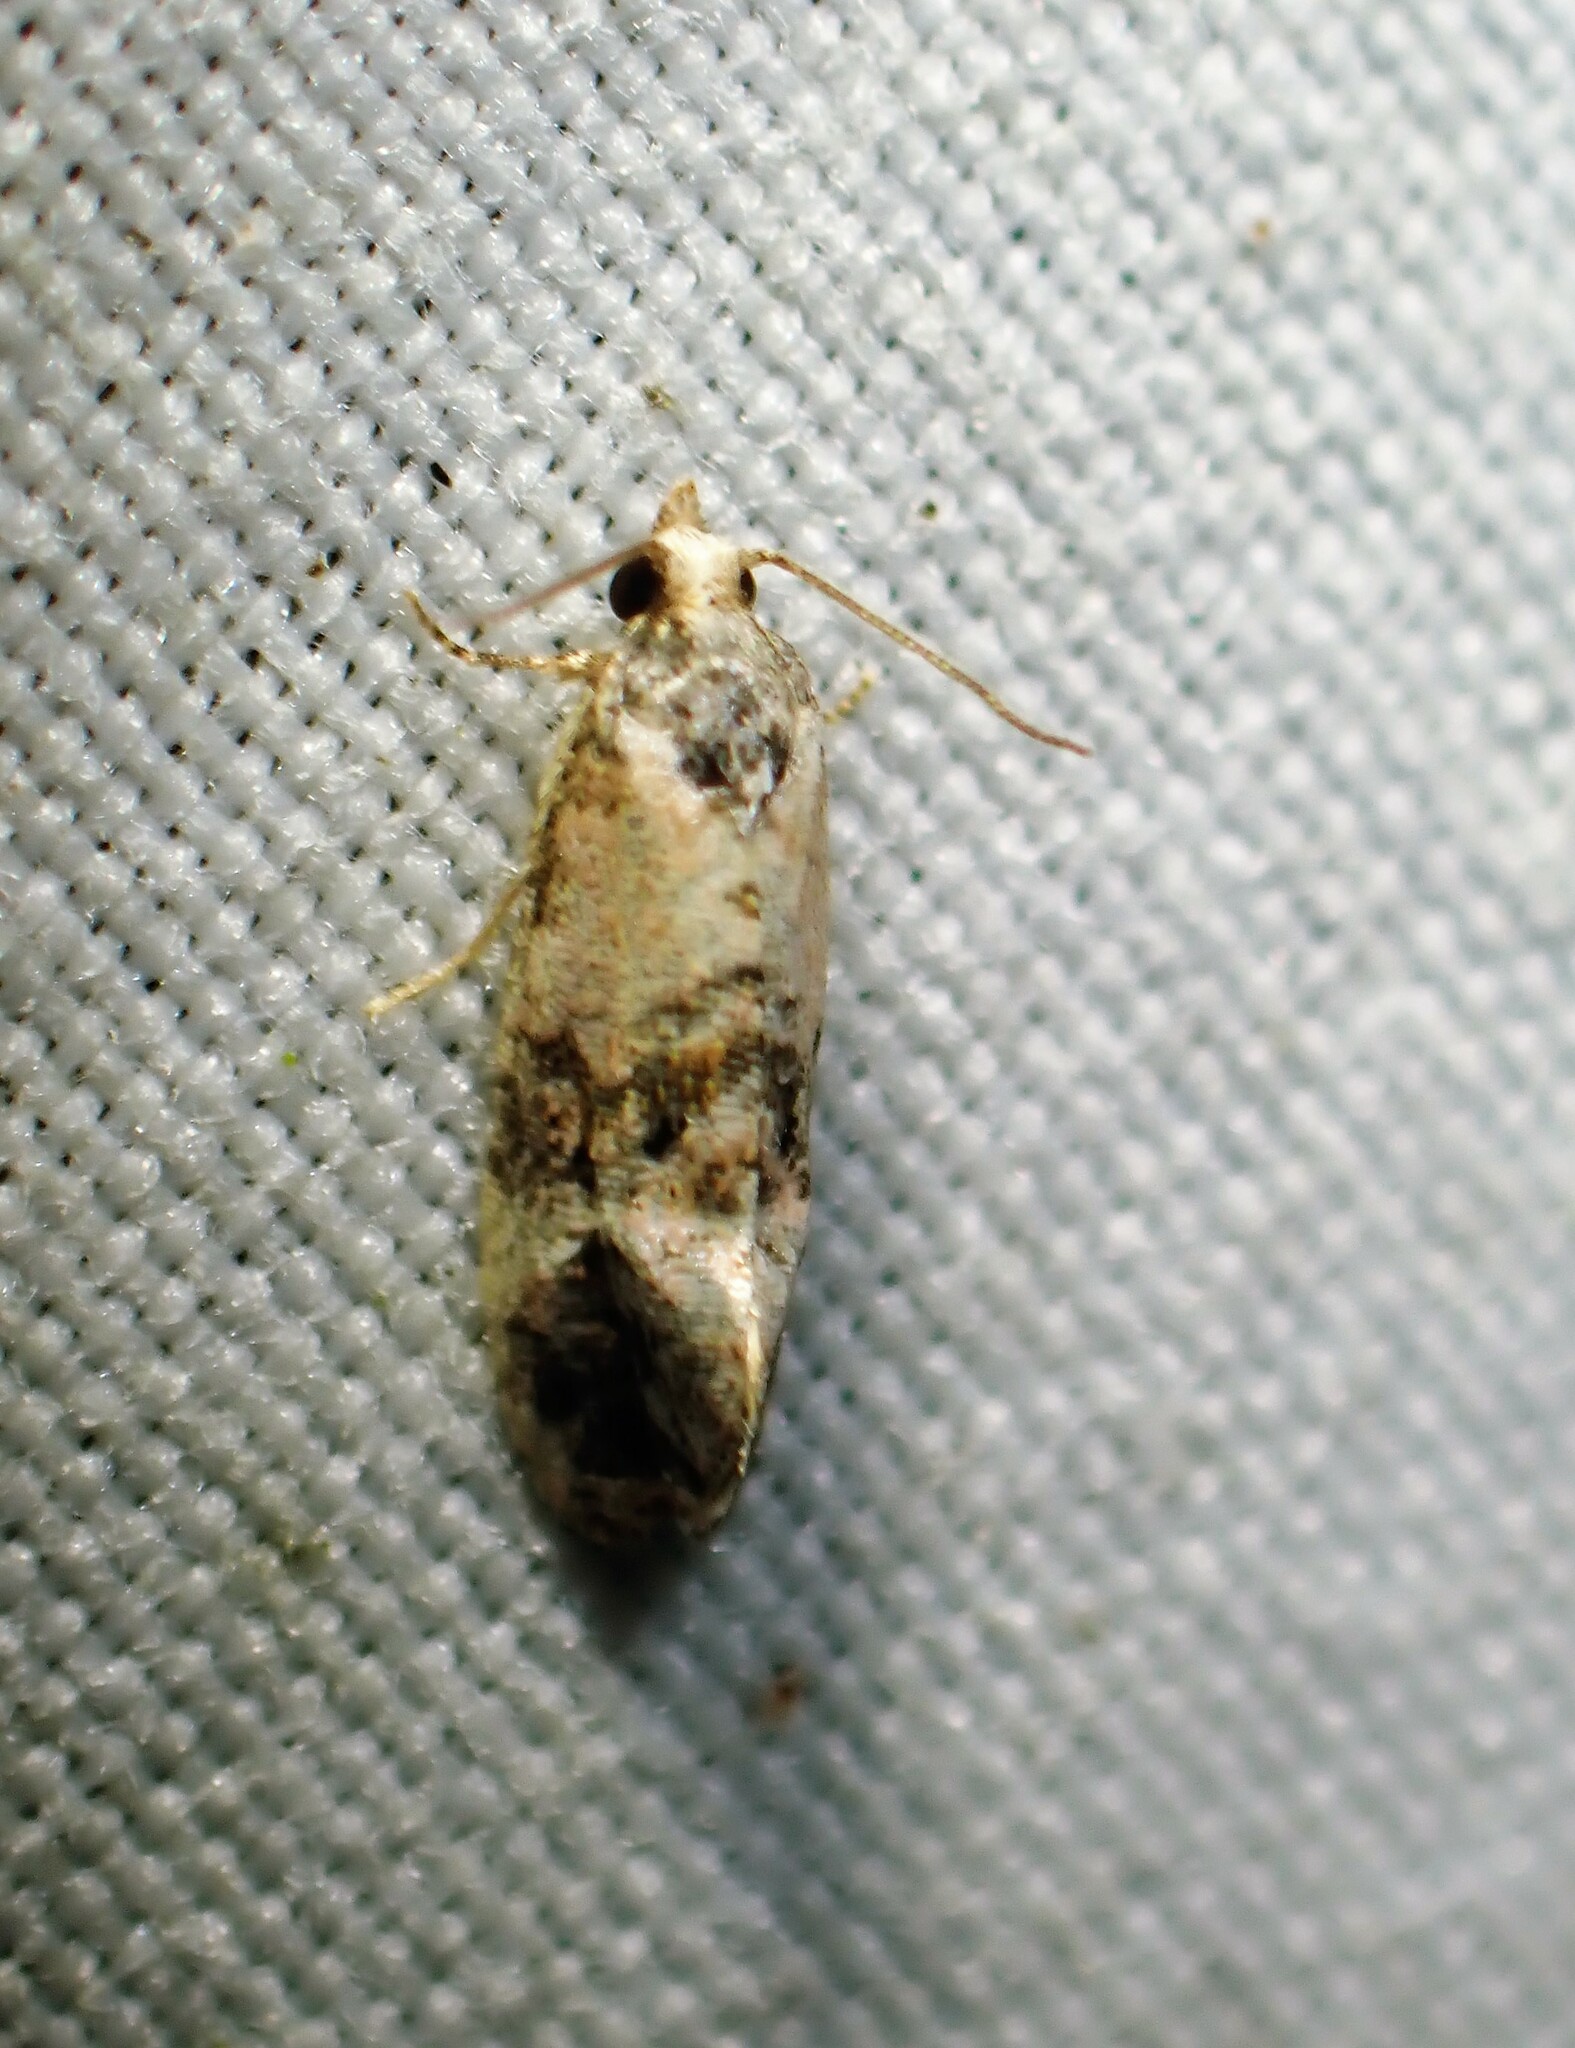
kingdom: Animalia
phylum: Arthropoda
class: Insecta
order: Lepidoptera
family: Tortricidae
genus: Cochylis
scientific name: Cochylis Cochylichroa hoffmanana
